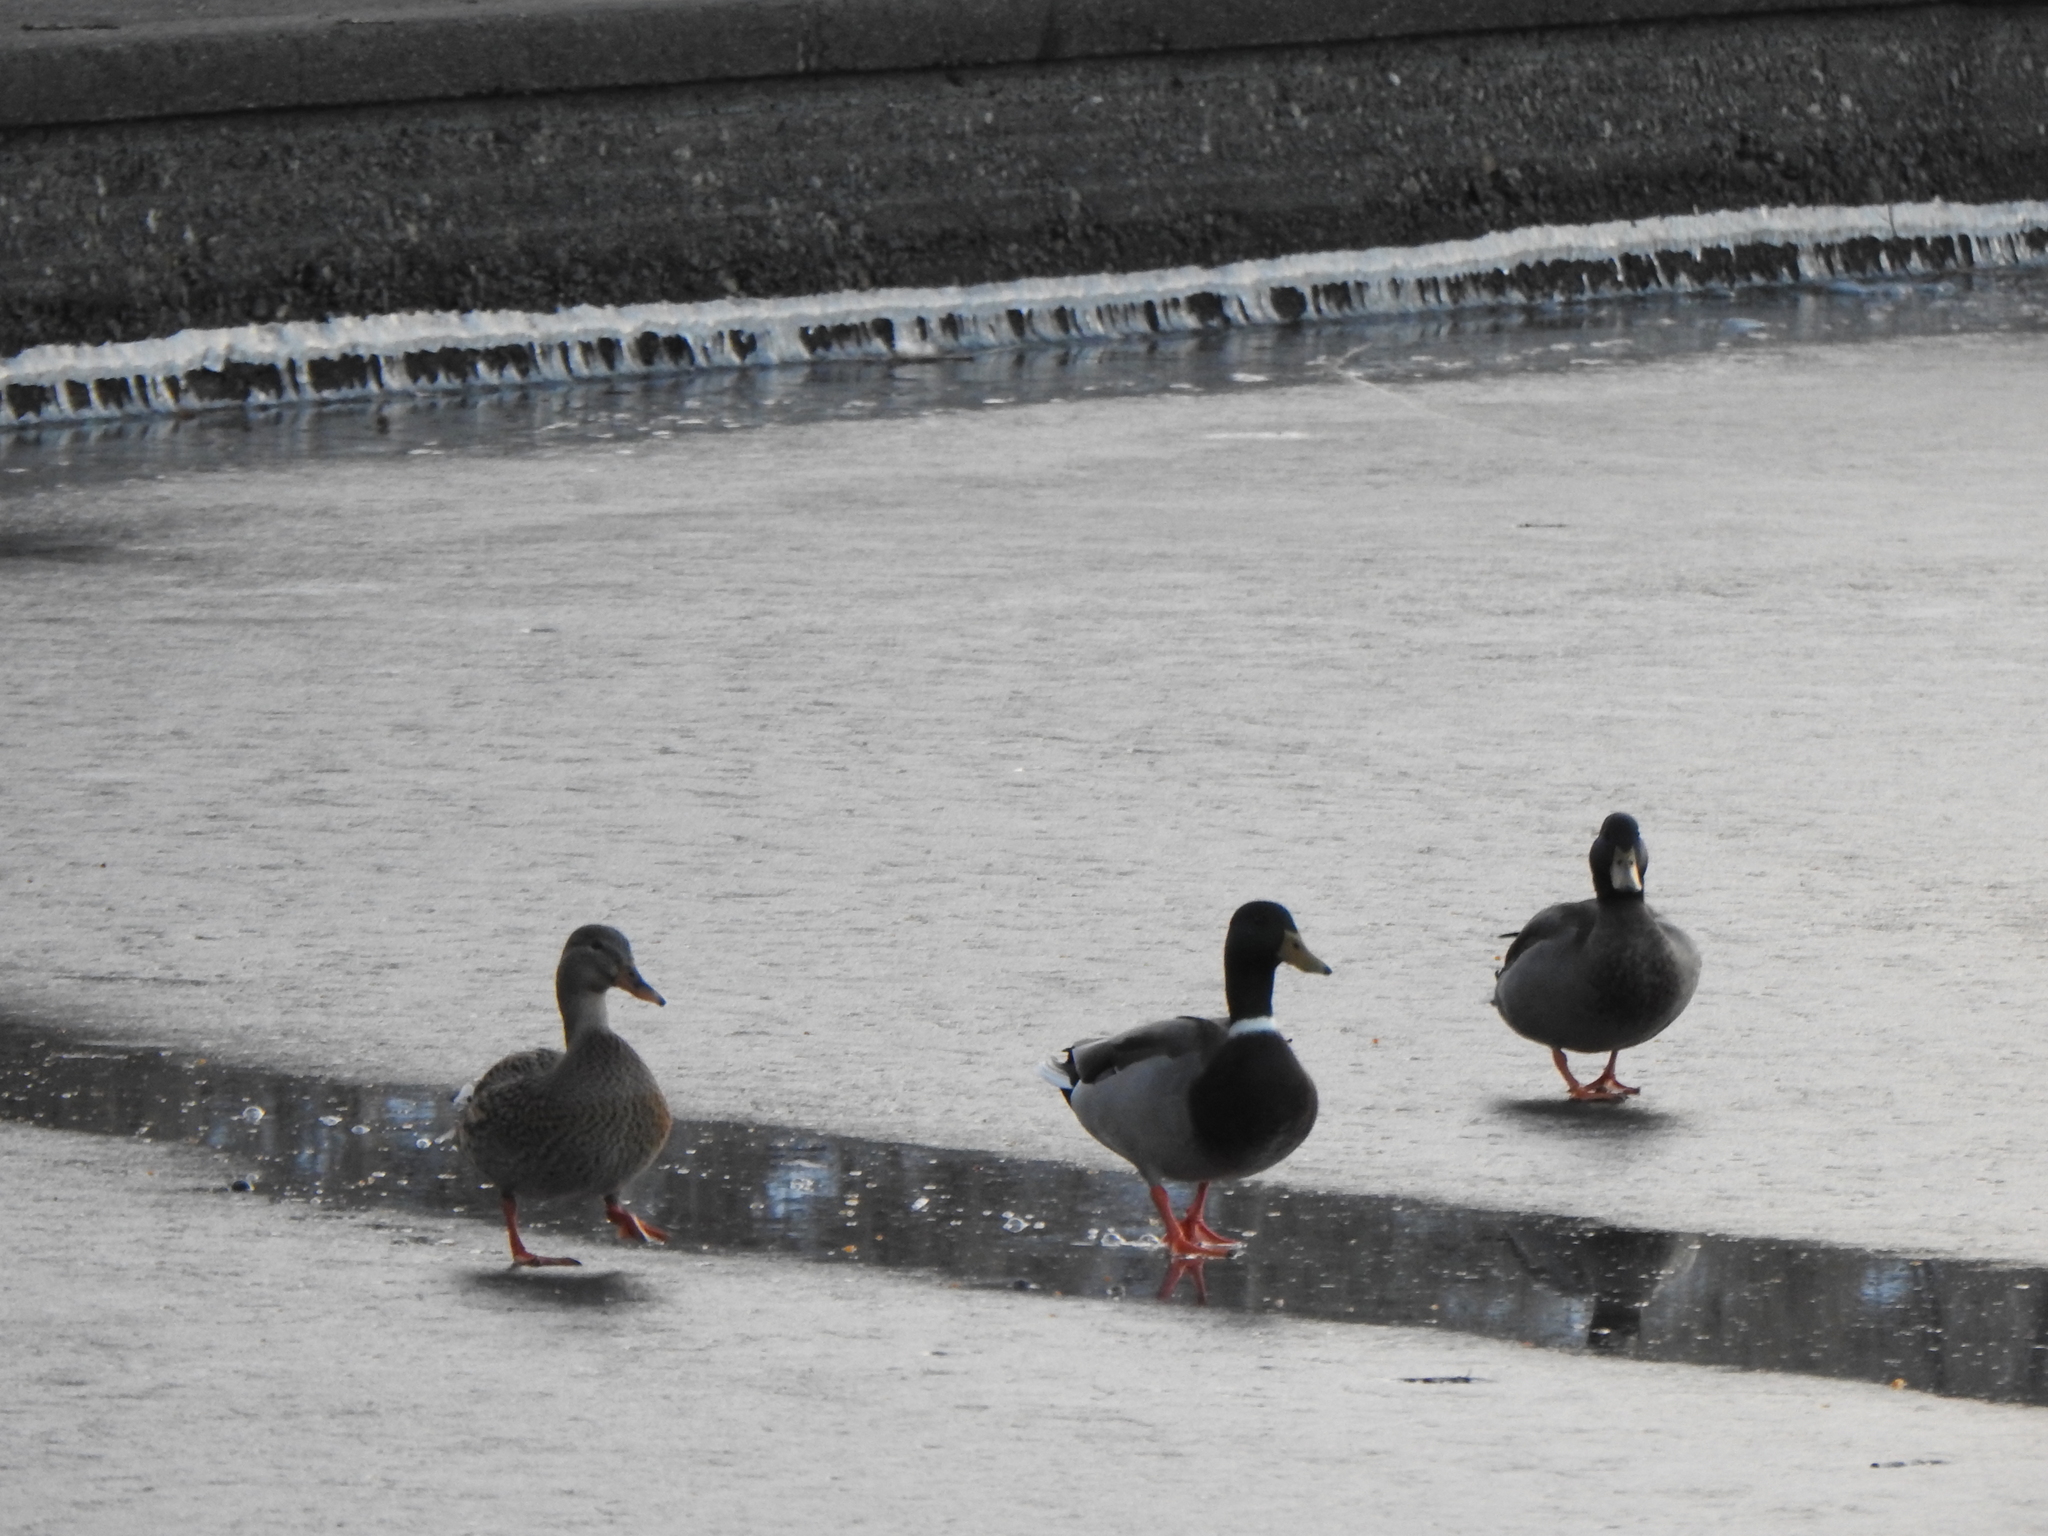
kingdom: Animalia
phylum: Chordata
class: Aves
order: Anseriformes
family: Anatidae
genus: Anas
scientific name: Anas platyrhynchos
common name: Mallard
